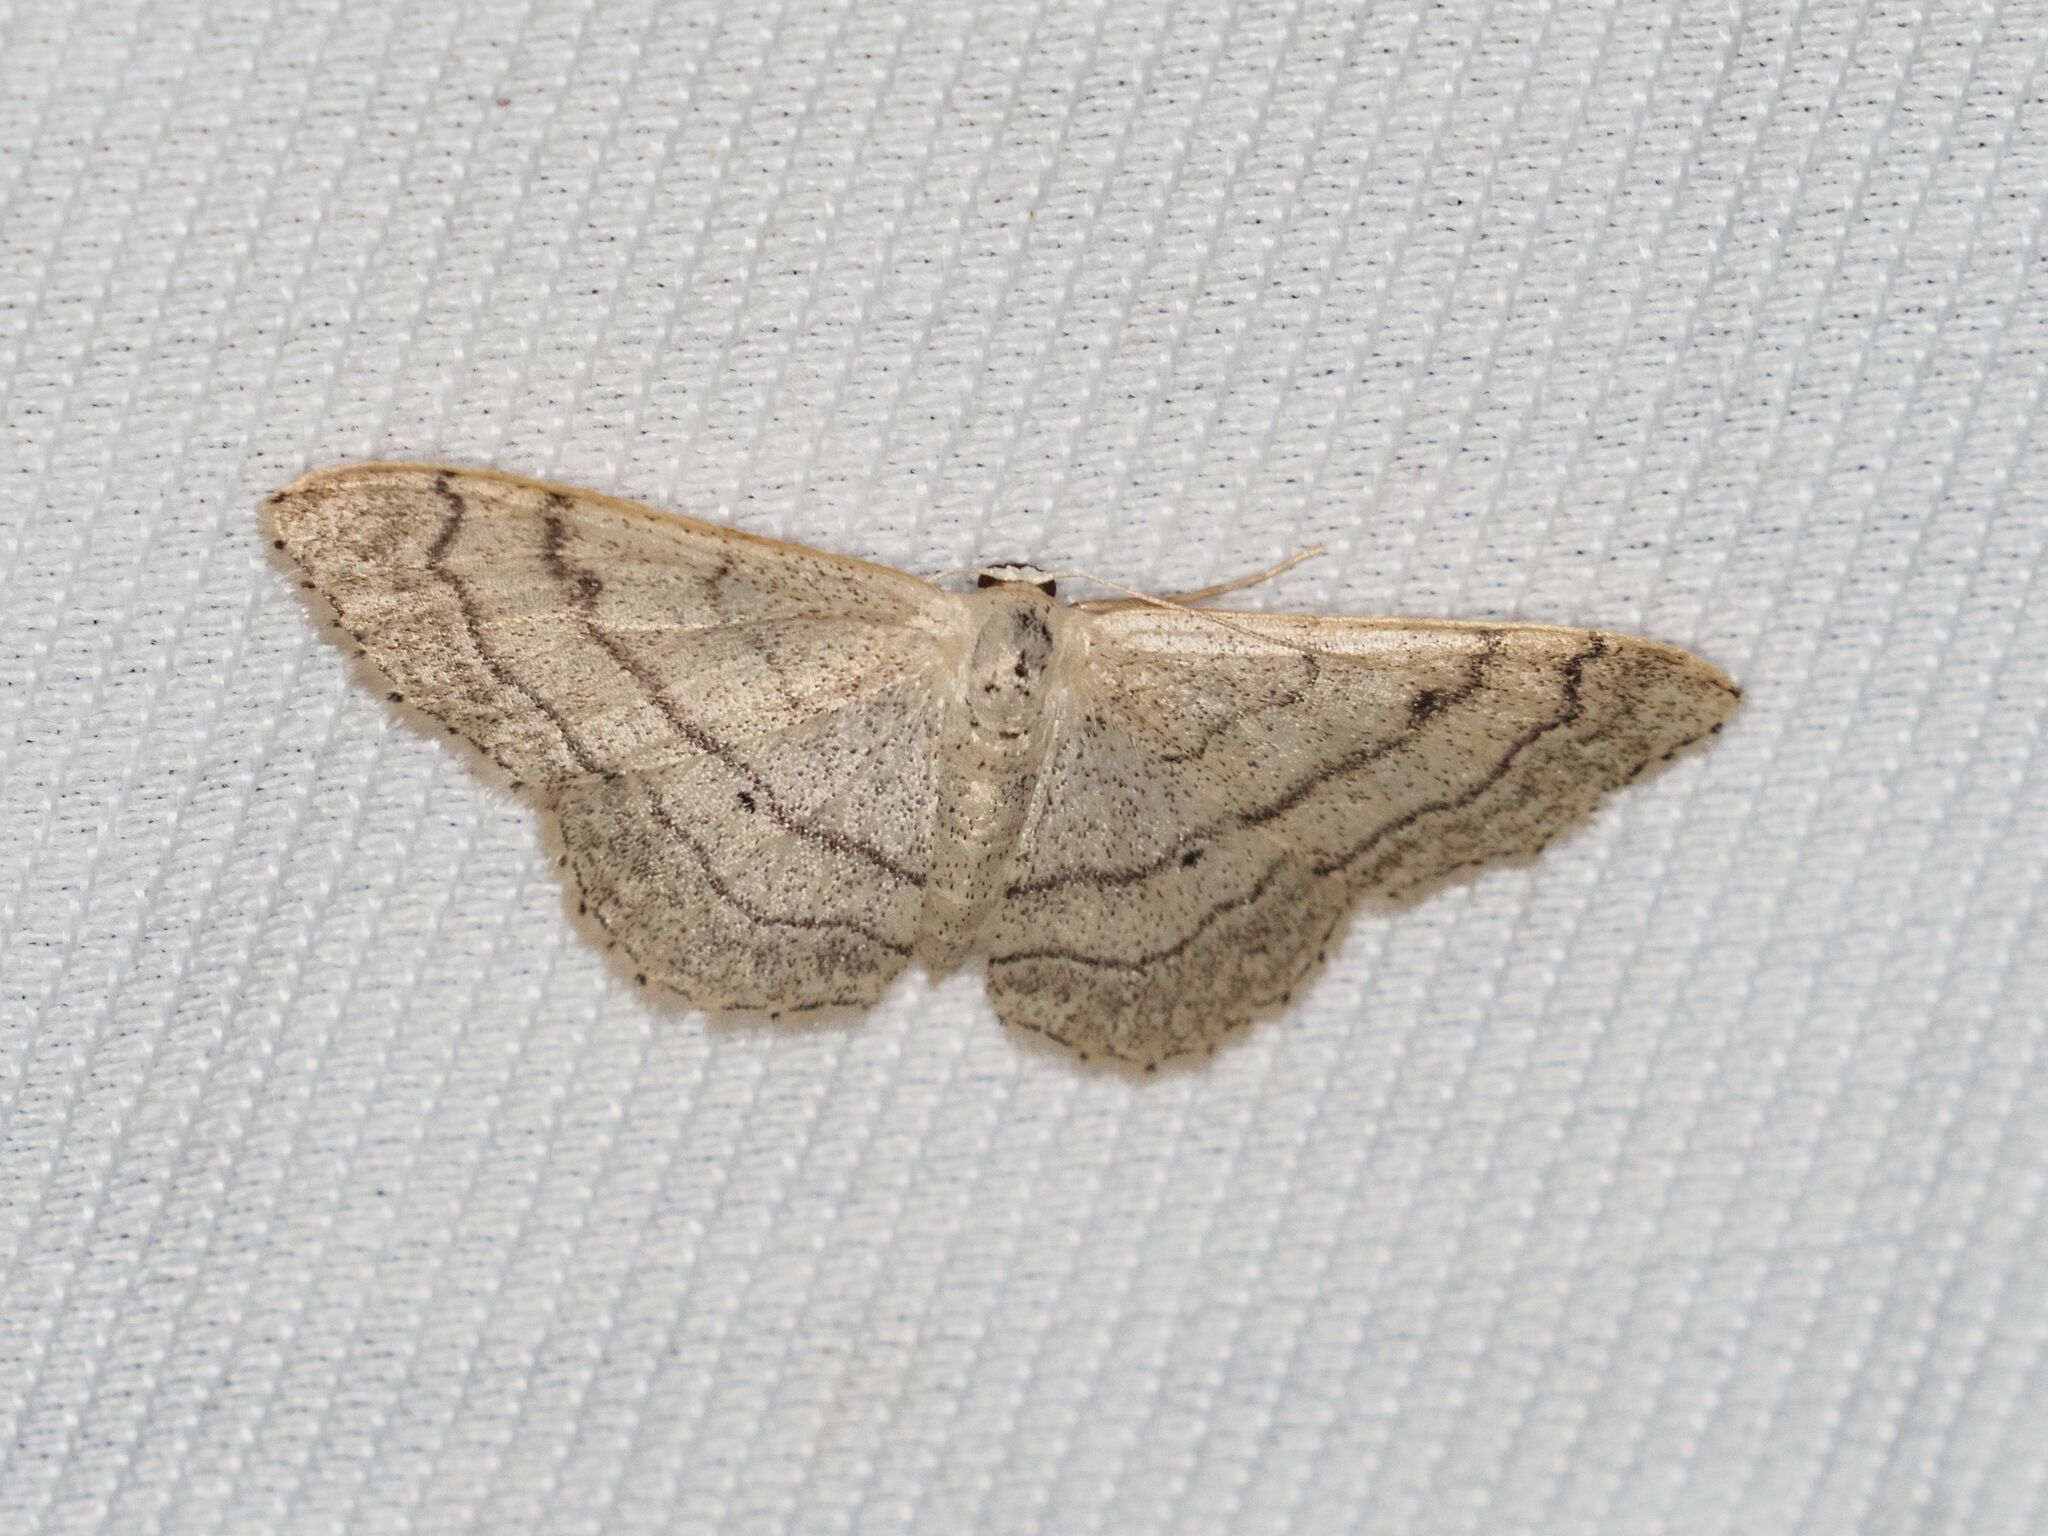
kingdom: Animalia
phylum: Arthropoda
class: Insecta
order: Lepidoptera
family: Geometridae
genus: Idaea
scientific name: Idaea aversata
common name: Riband wave
